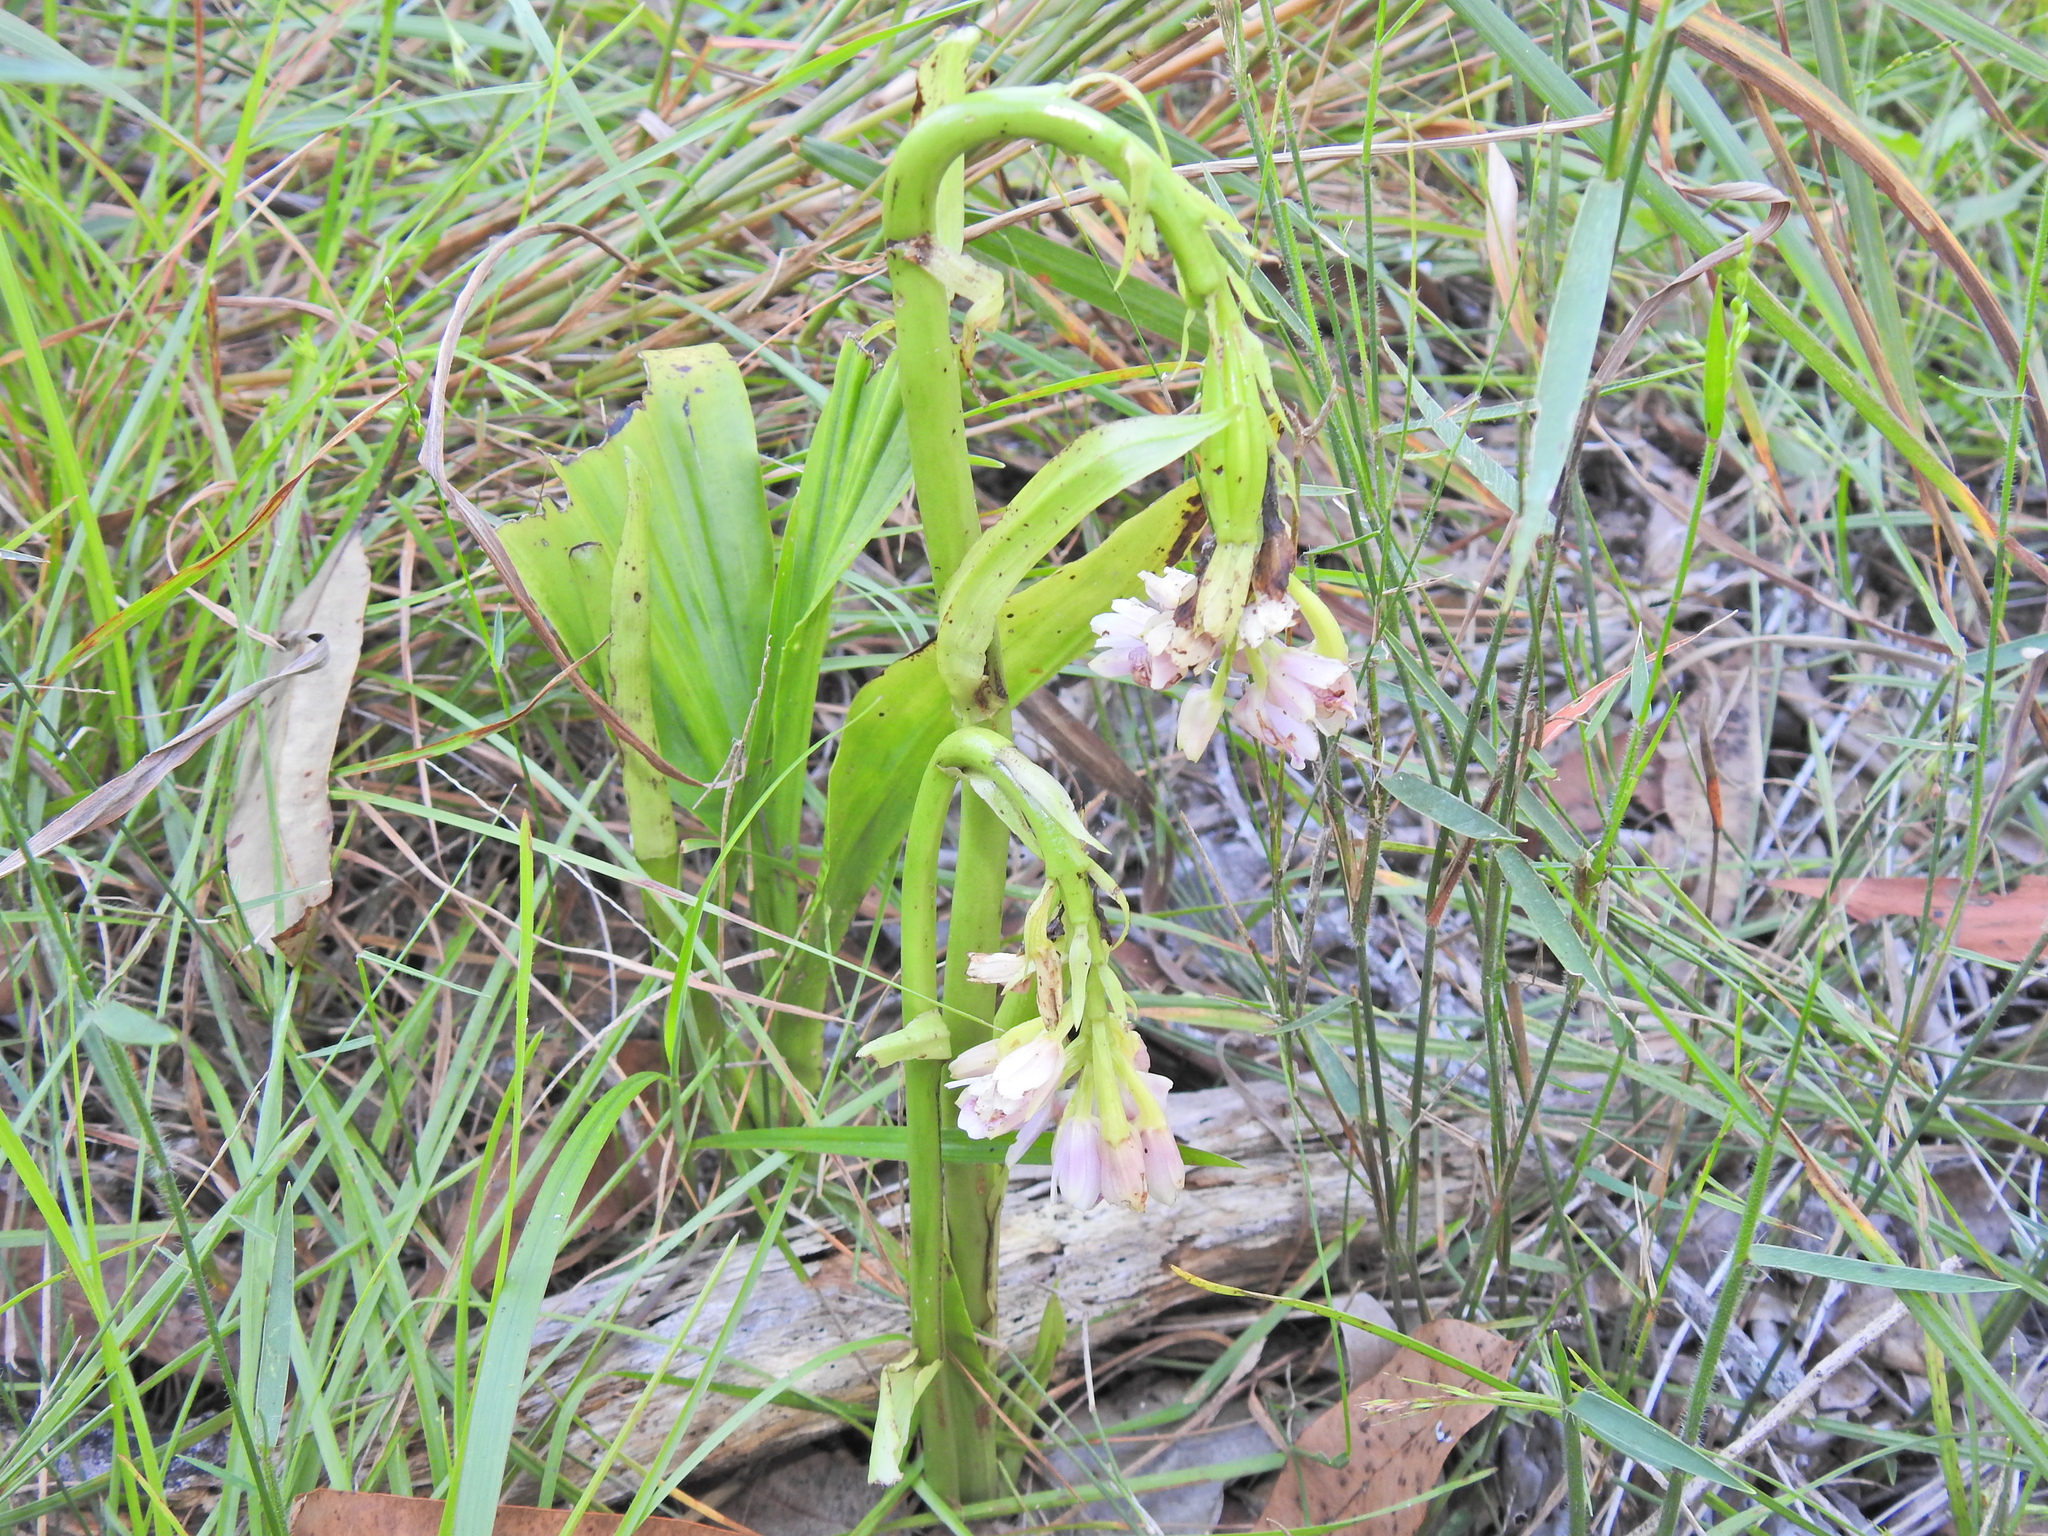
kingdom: Plantae
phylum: Tracheophyta
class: Liliopsida
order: Asparagales
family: Orchidaceae
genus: Eulophia
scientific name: Eulophia cernua
